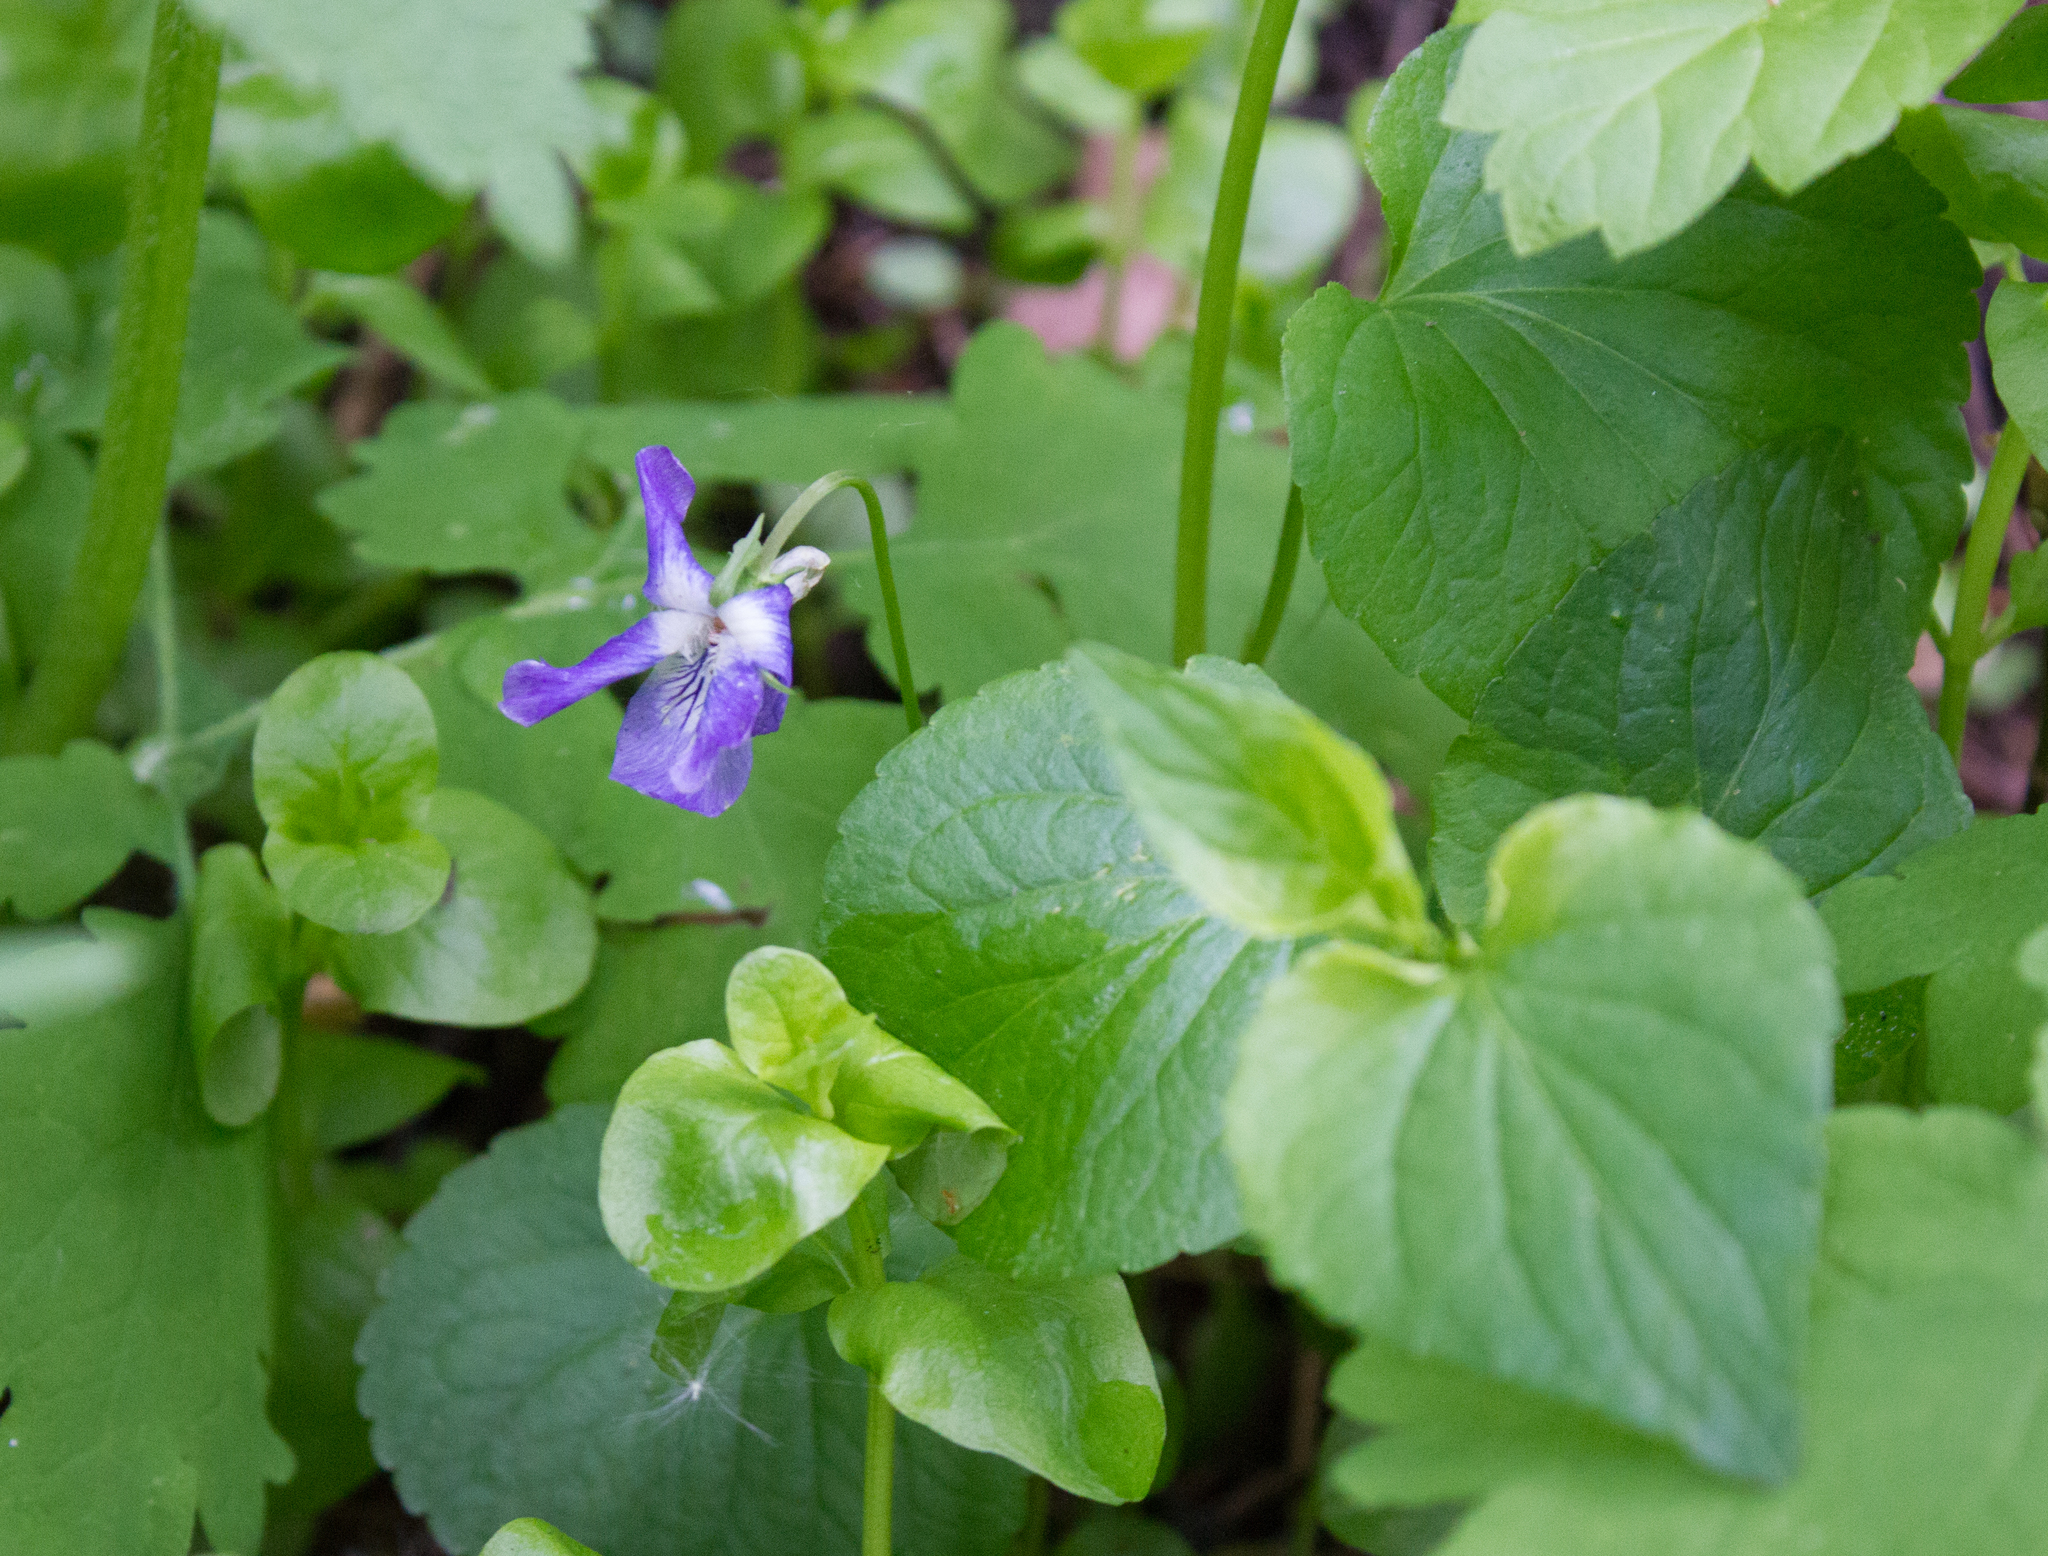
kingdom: Plantae
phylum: Tracheophyta
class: Magnoliopsida
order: Malpighiales
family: Violaceae
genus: Viola
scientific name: Viola riviniana
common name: Common dog-violet
